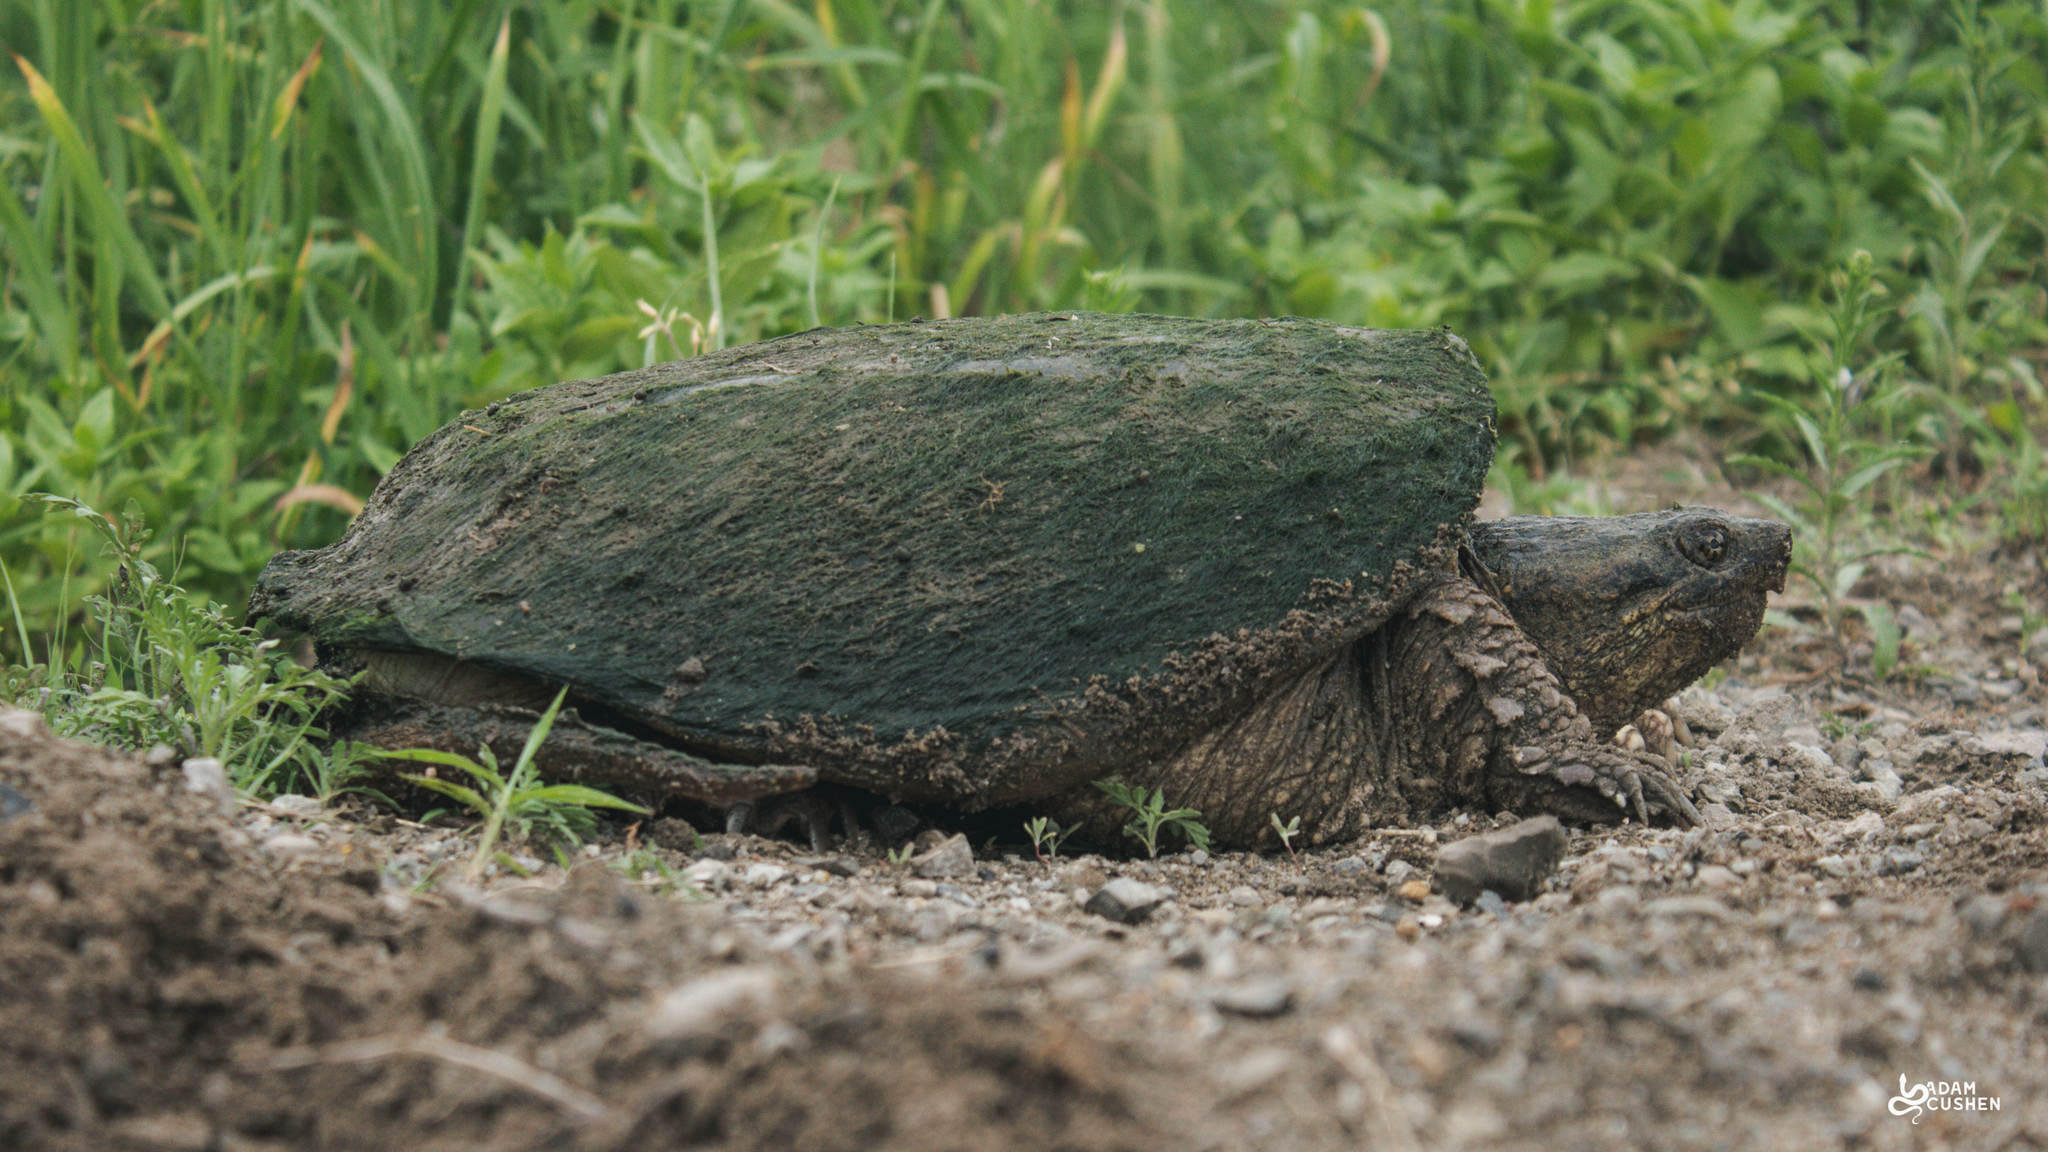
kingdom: Animalia
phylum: Chordata
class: Testudines
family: Chelydridae
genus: Chelydra
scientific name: Chelydra serpentina
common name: Common snapping turtle
